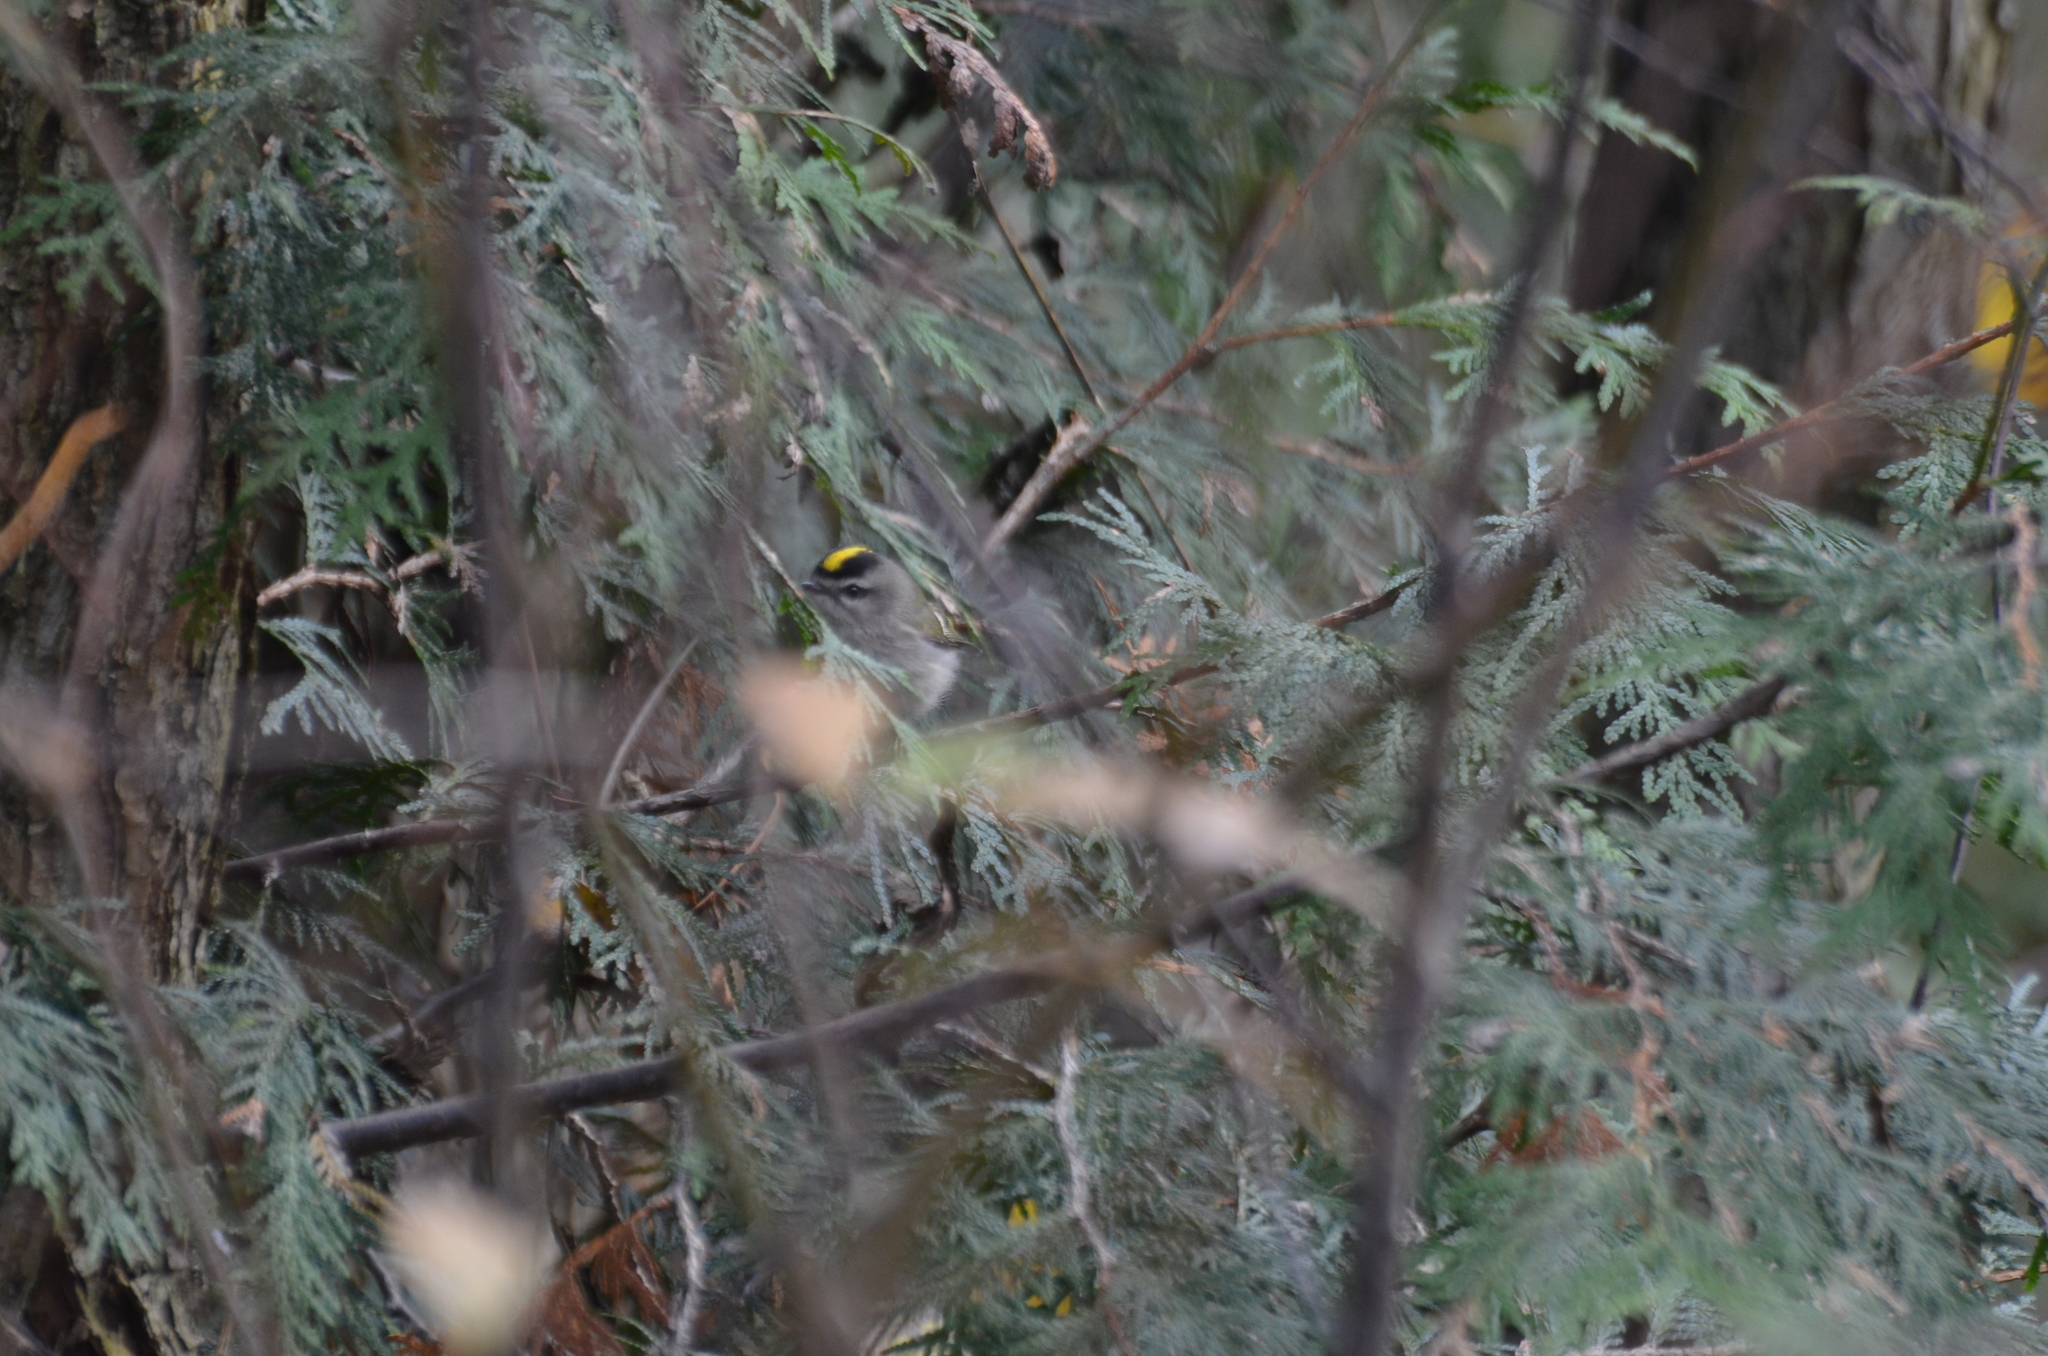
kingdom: Animalia
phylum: Chordata
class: Aves
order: Passeriformes
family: Regulidae
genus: Regulus
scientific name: Regulus satrapa
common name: Golden-crowned kinglet
